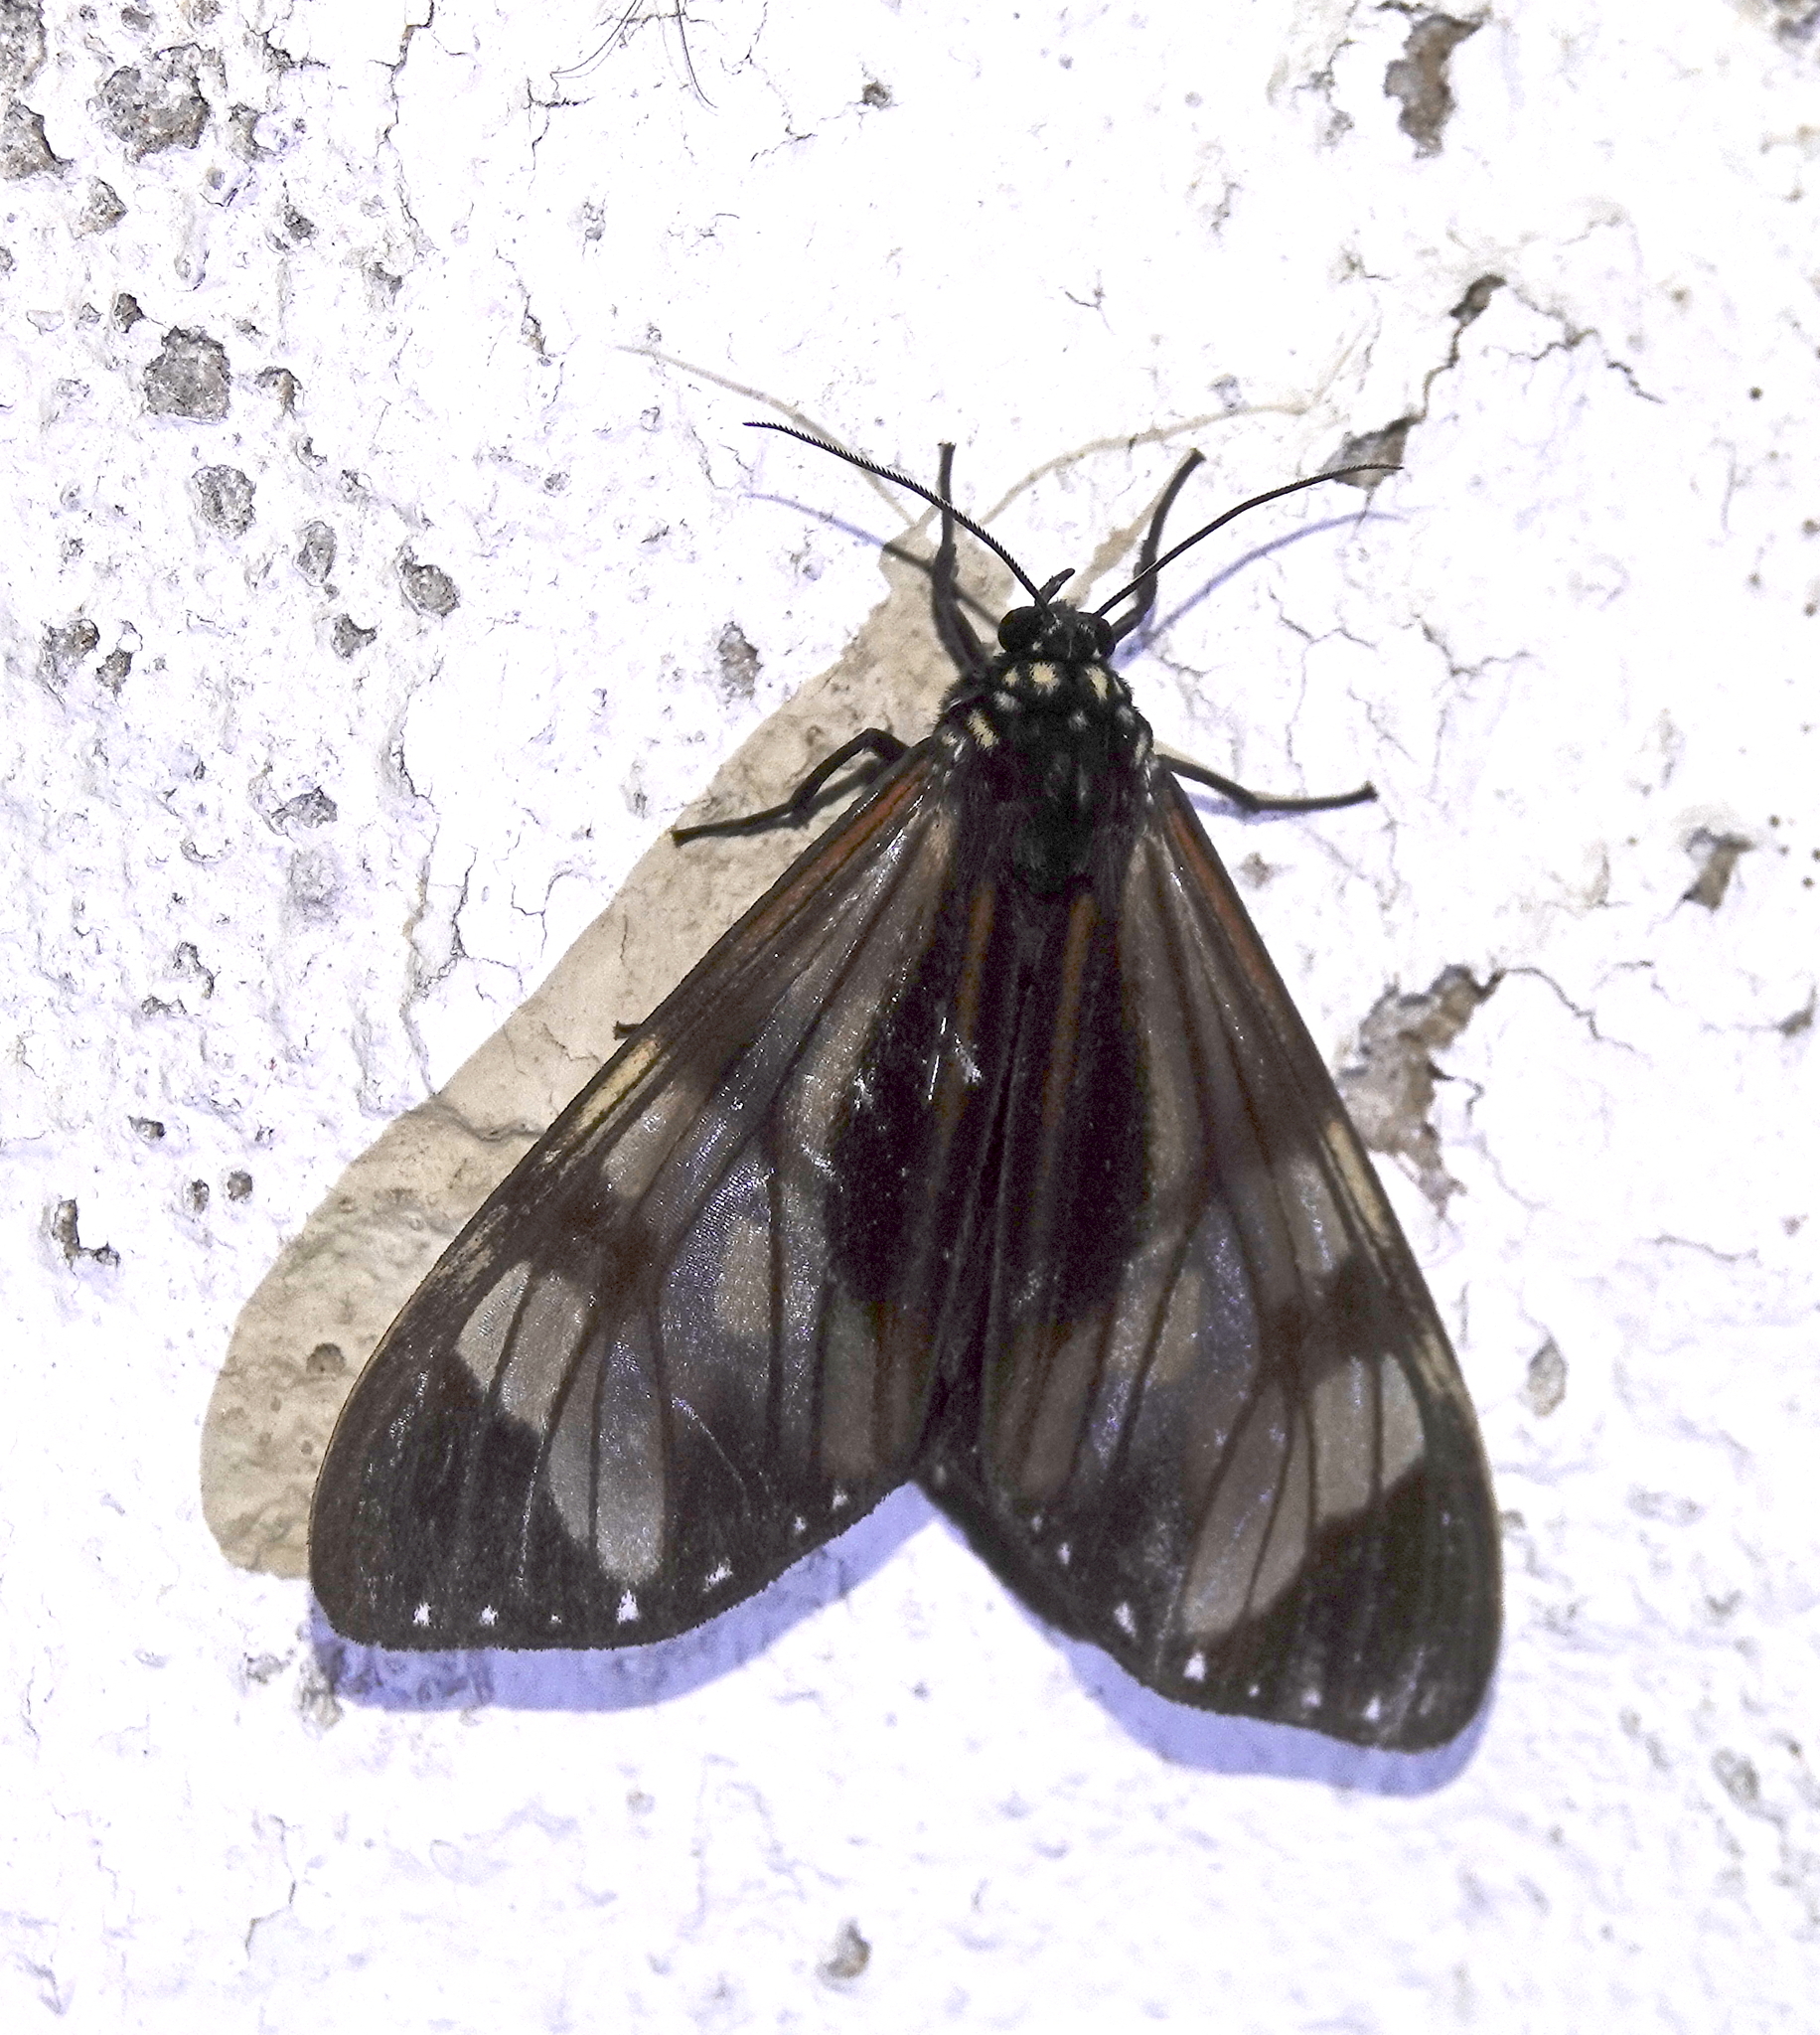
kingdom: Animalia
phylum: Arthropoda
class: Insecta
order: Lepidoptera
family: Erebidae
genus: Dysschema
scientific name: Dysschema eurocilia
